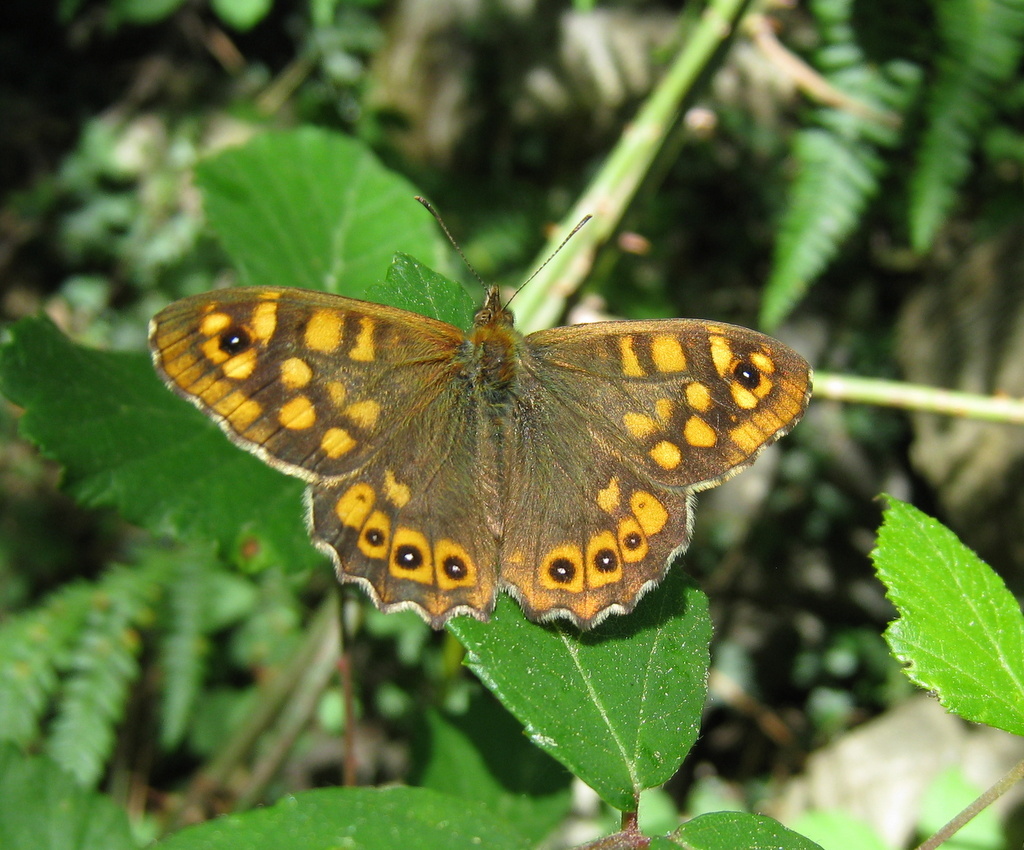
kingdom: Animalia
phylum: Arthropoda
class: Insecta
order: Lepidoptera
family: Nymphalidae
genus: Pararge
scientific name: Pararge aegeria
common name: Speckled wood
